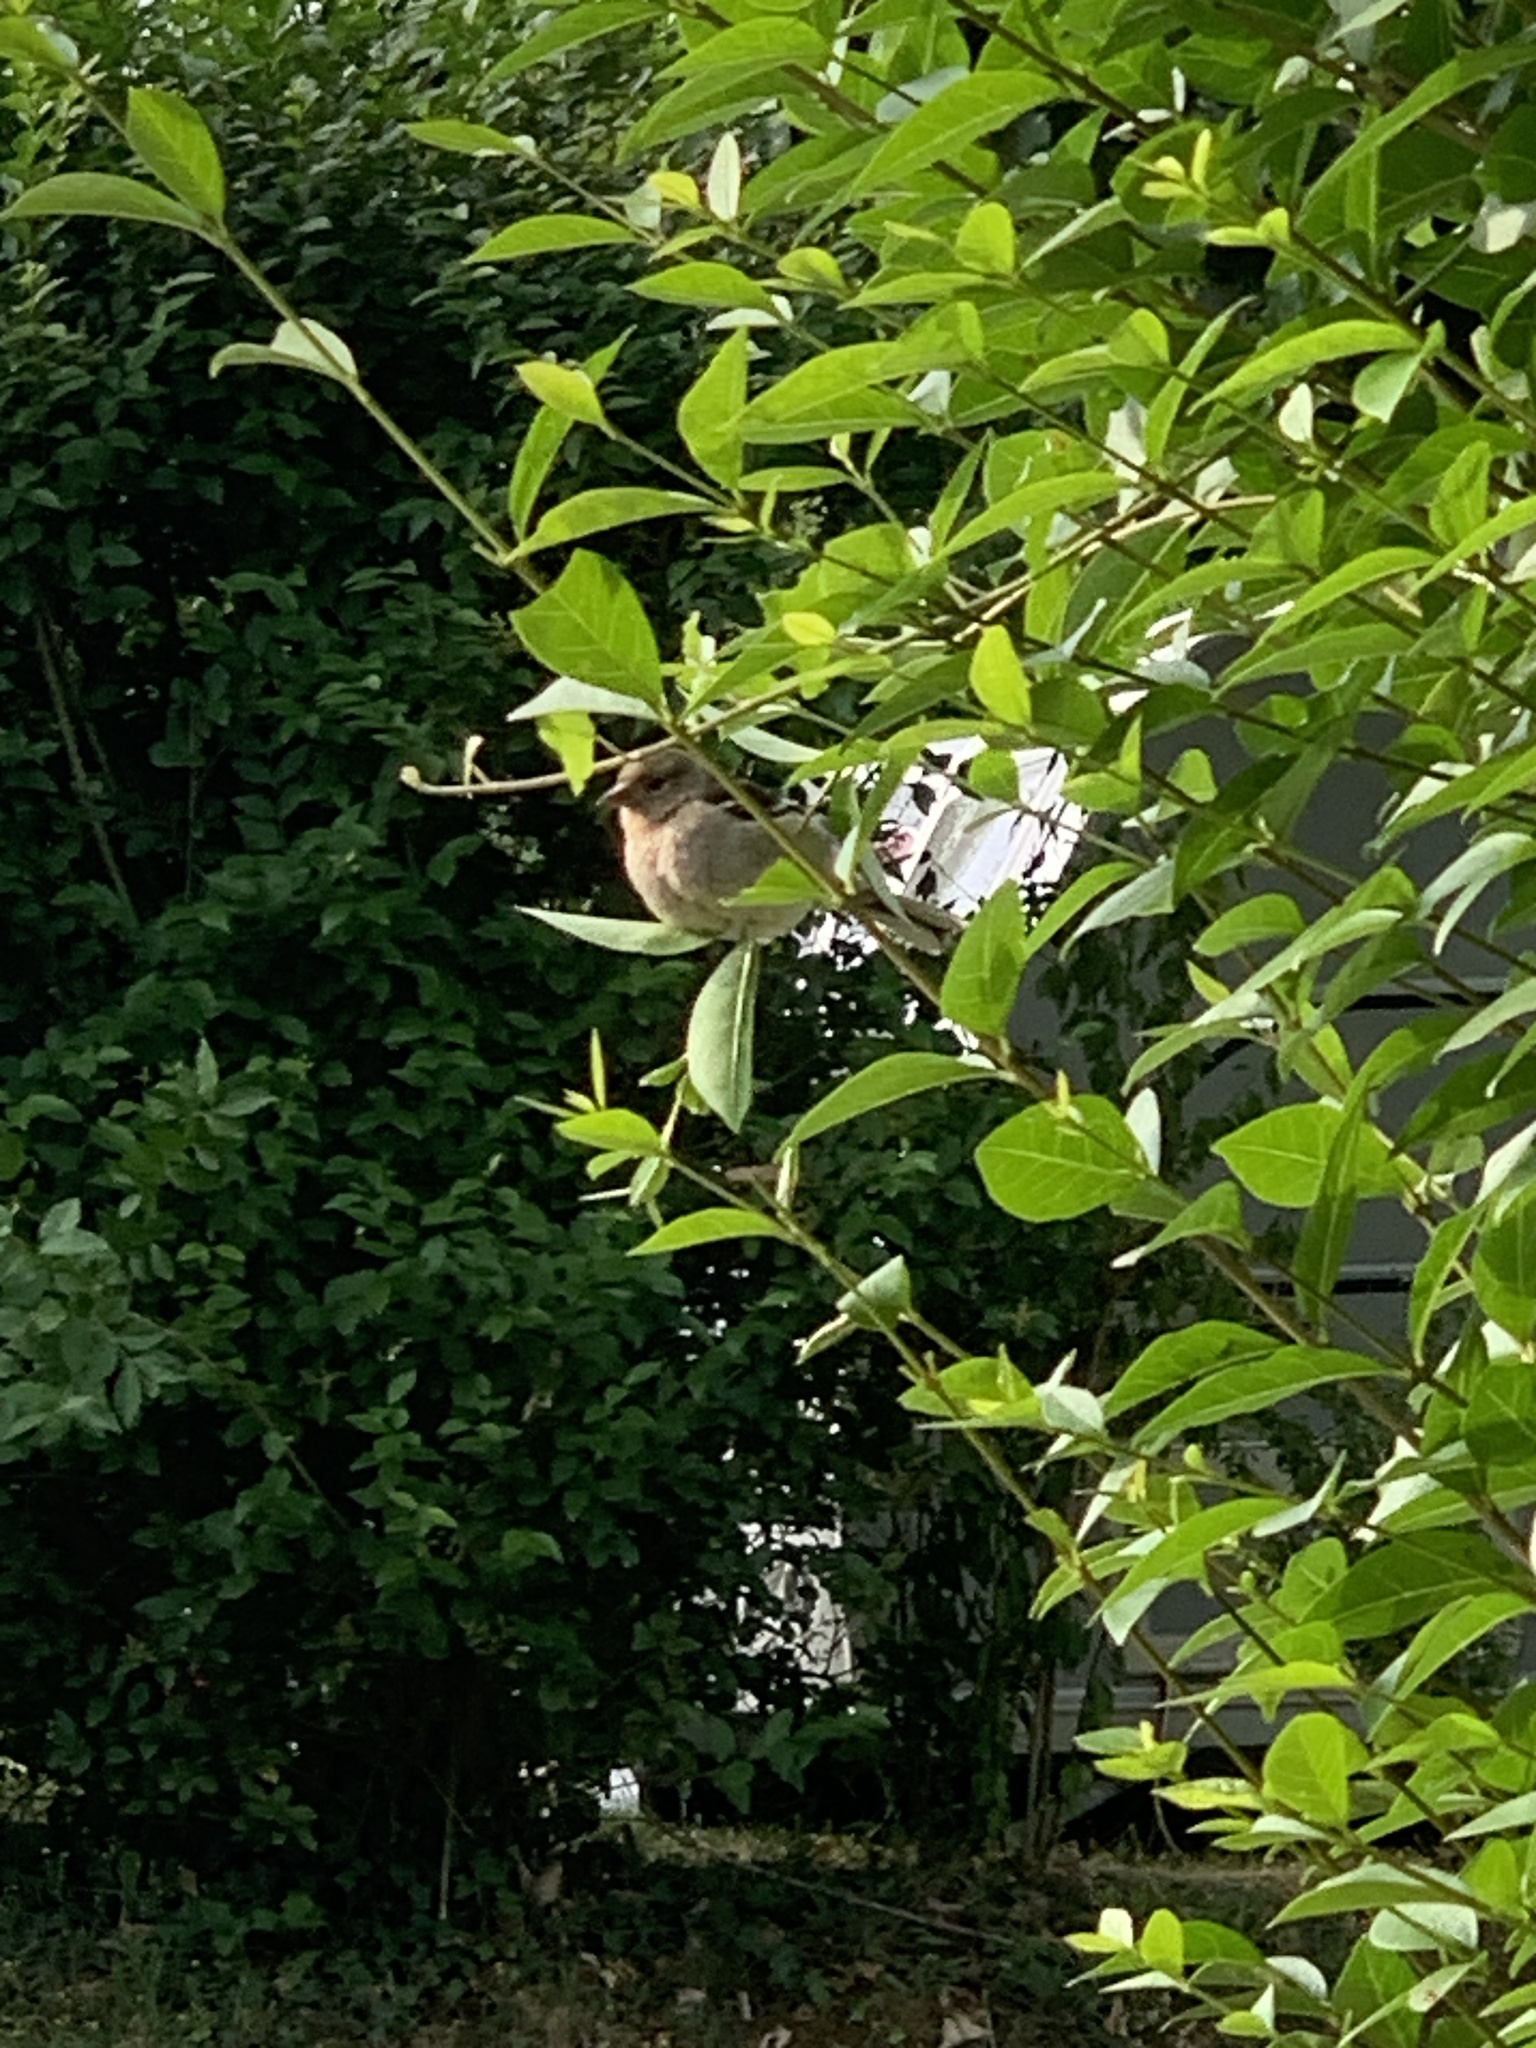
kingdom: Animalia
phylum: Chordata
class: Aves
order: Passeriformes
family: Fringillidae
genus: Fringilla
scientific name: Fringilla coelebs
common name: Common chaffinch
